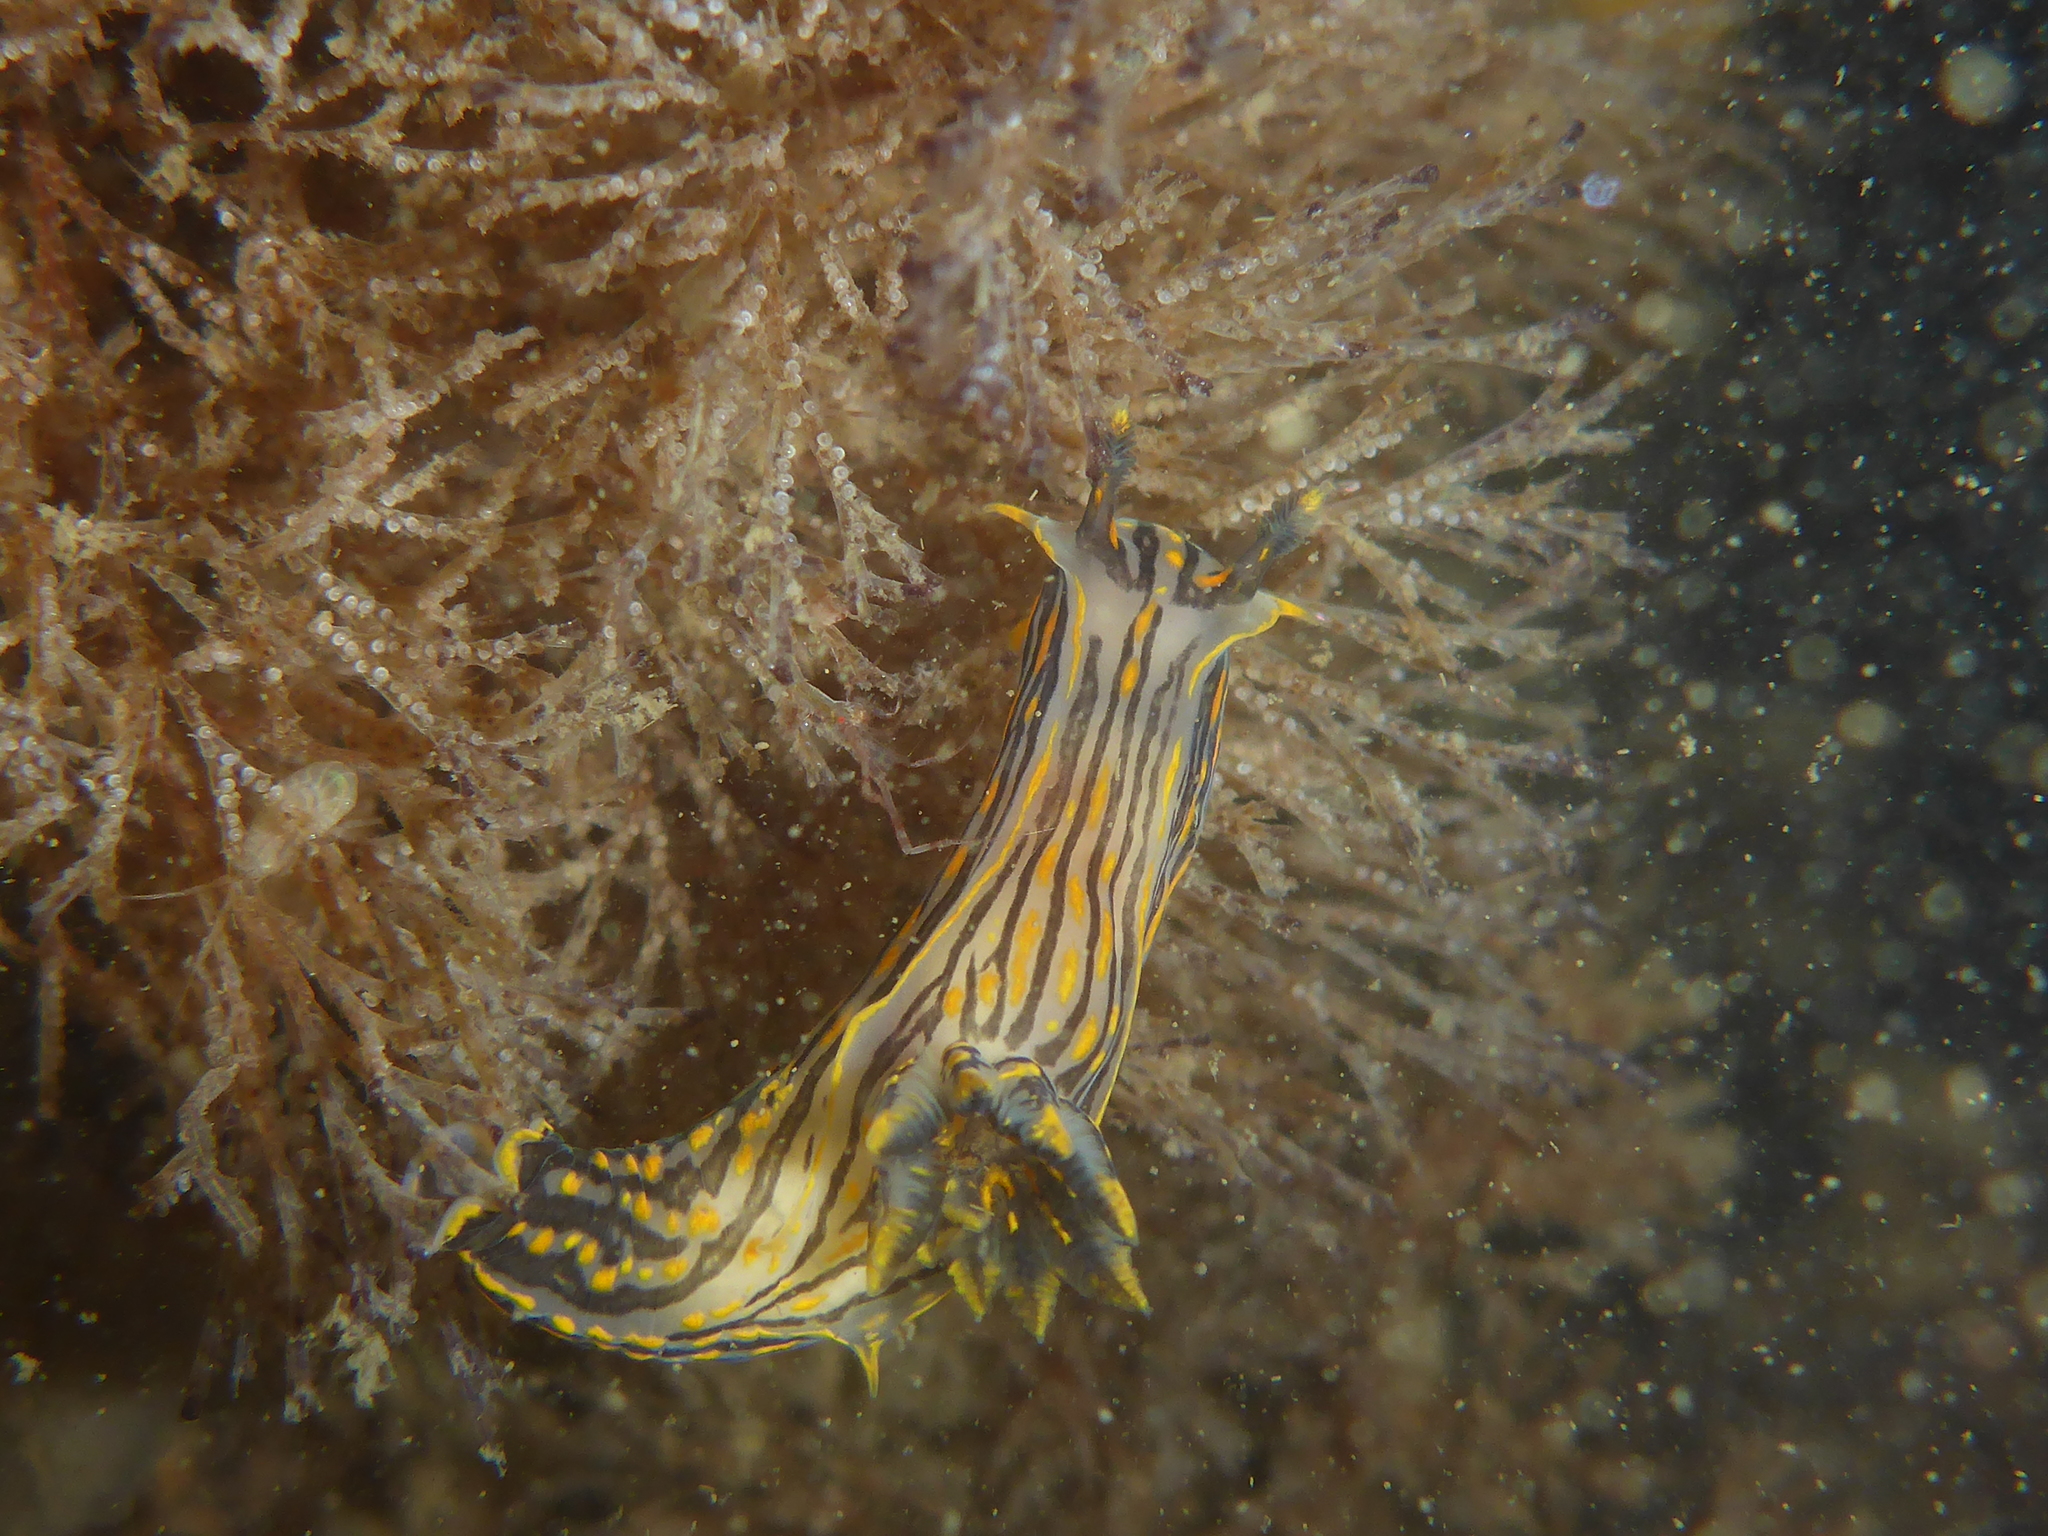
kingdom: Animalia
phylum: Mollusca
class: Gastropoda
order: Nudibranchia
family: Polyceridae
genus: Polycera
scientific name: Polycera atra
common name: Orange-spike polycera
